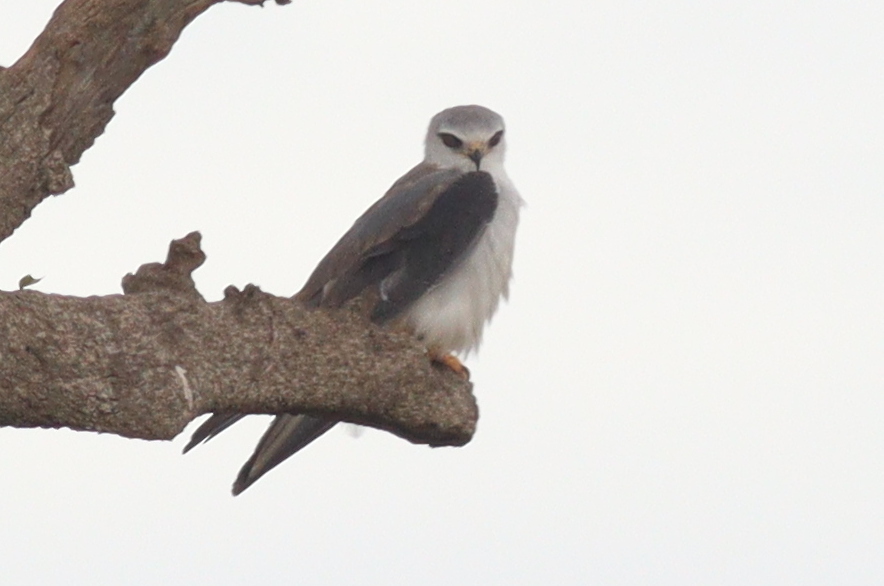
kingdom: Animalia
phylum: Chordata
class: Aves
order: Accipitriformes
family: Accipitridae
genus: Elanus
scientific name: Elanus caeruleus
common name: Black-winged kite
